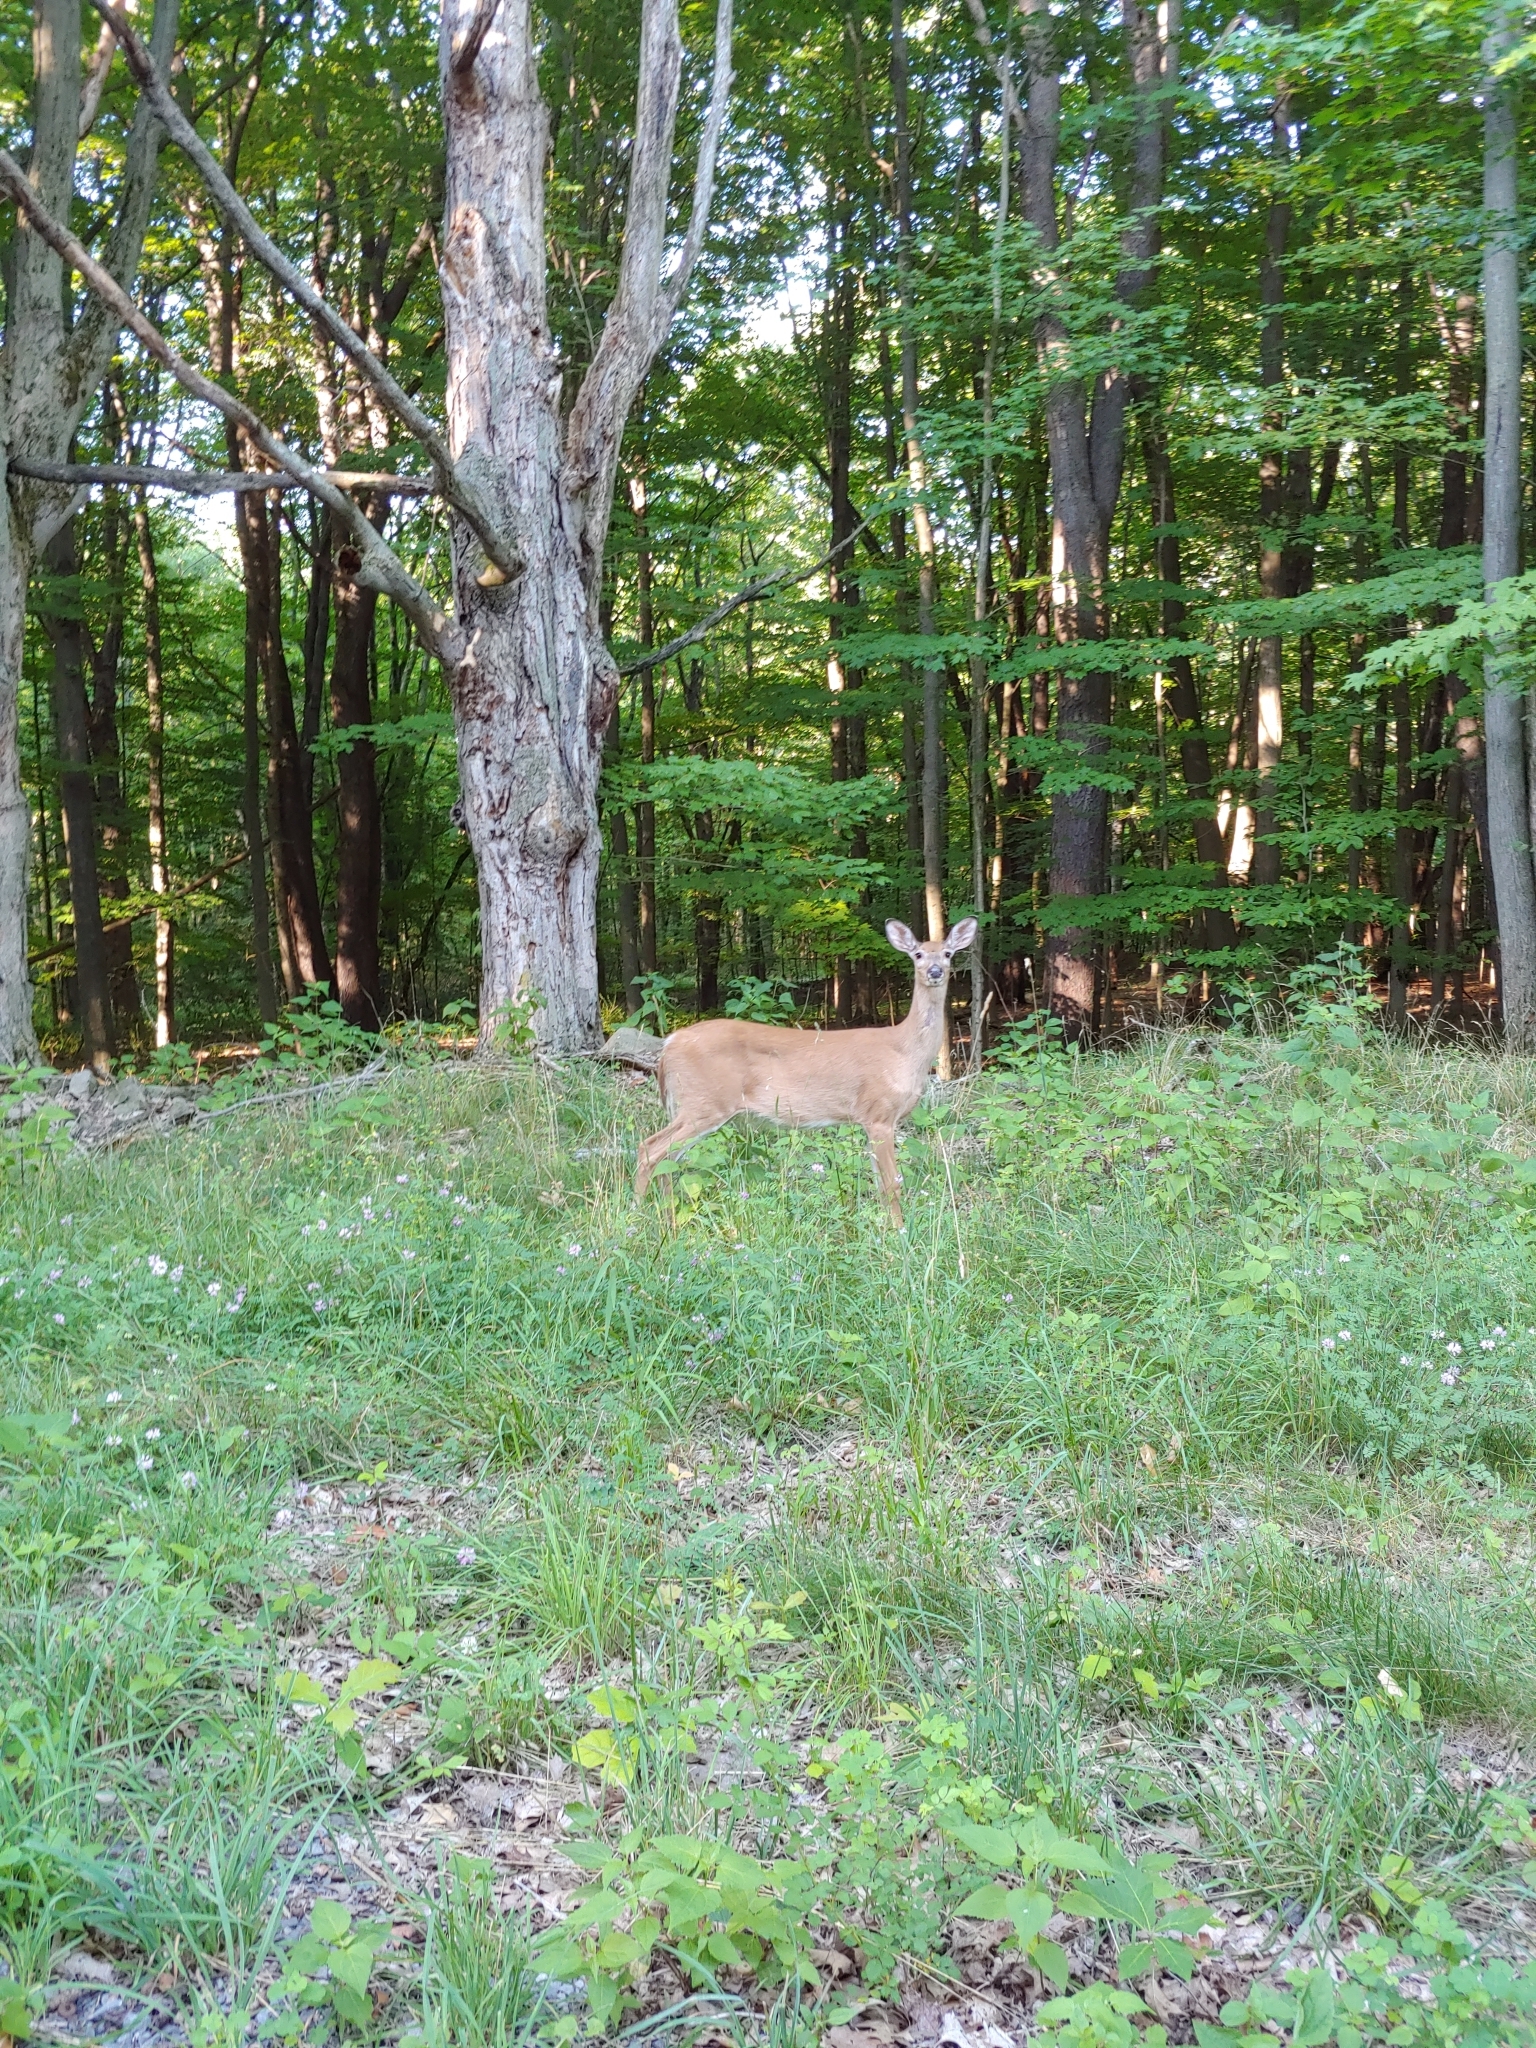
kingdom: Animalia
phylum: Chordata
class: Mammalia
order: Artiodactyla
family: Cervidae
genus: Odocoileus
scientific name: Odocoileus virginianus
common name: White-tailed deer
